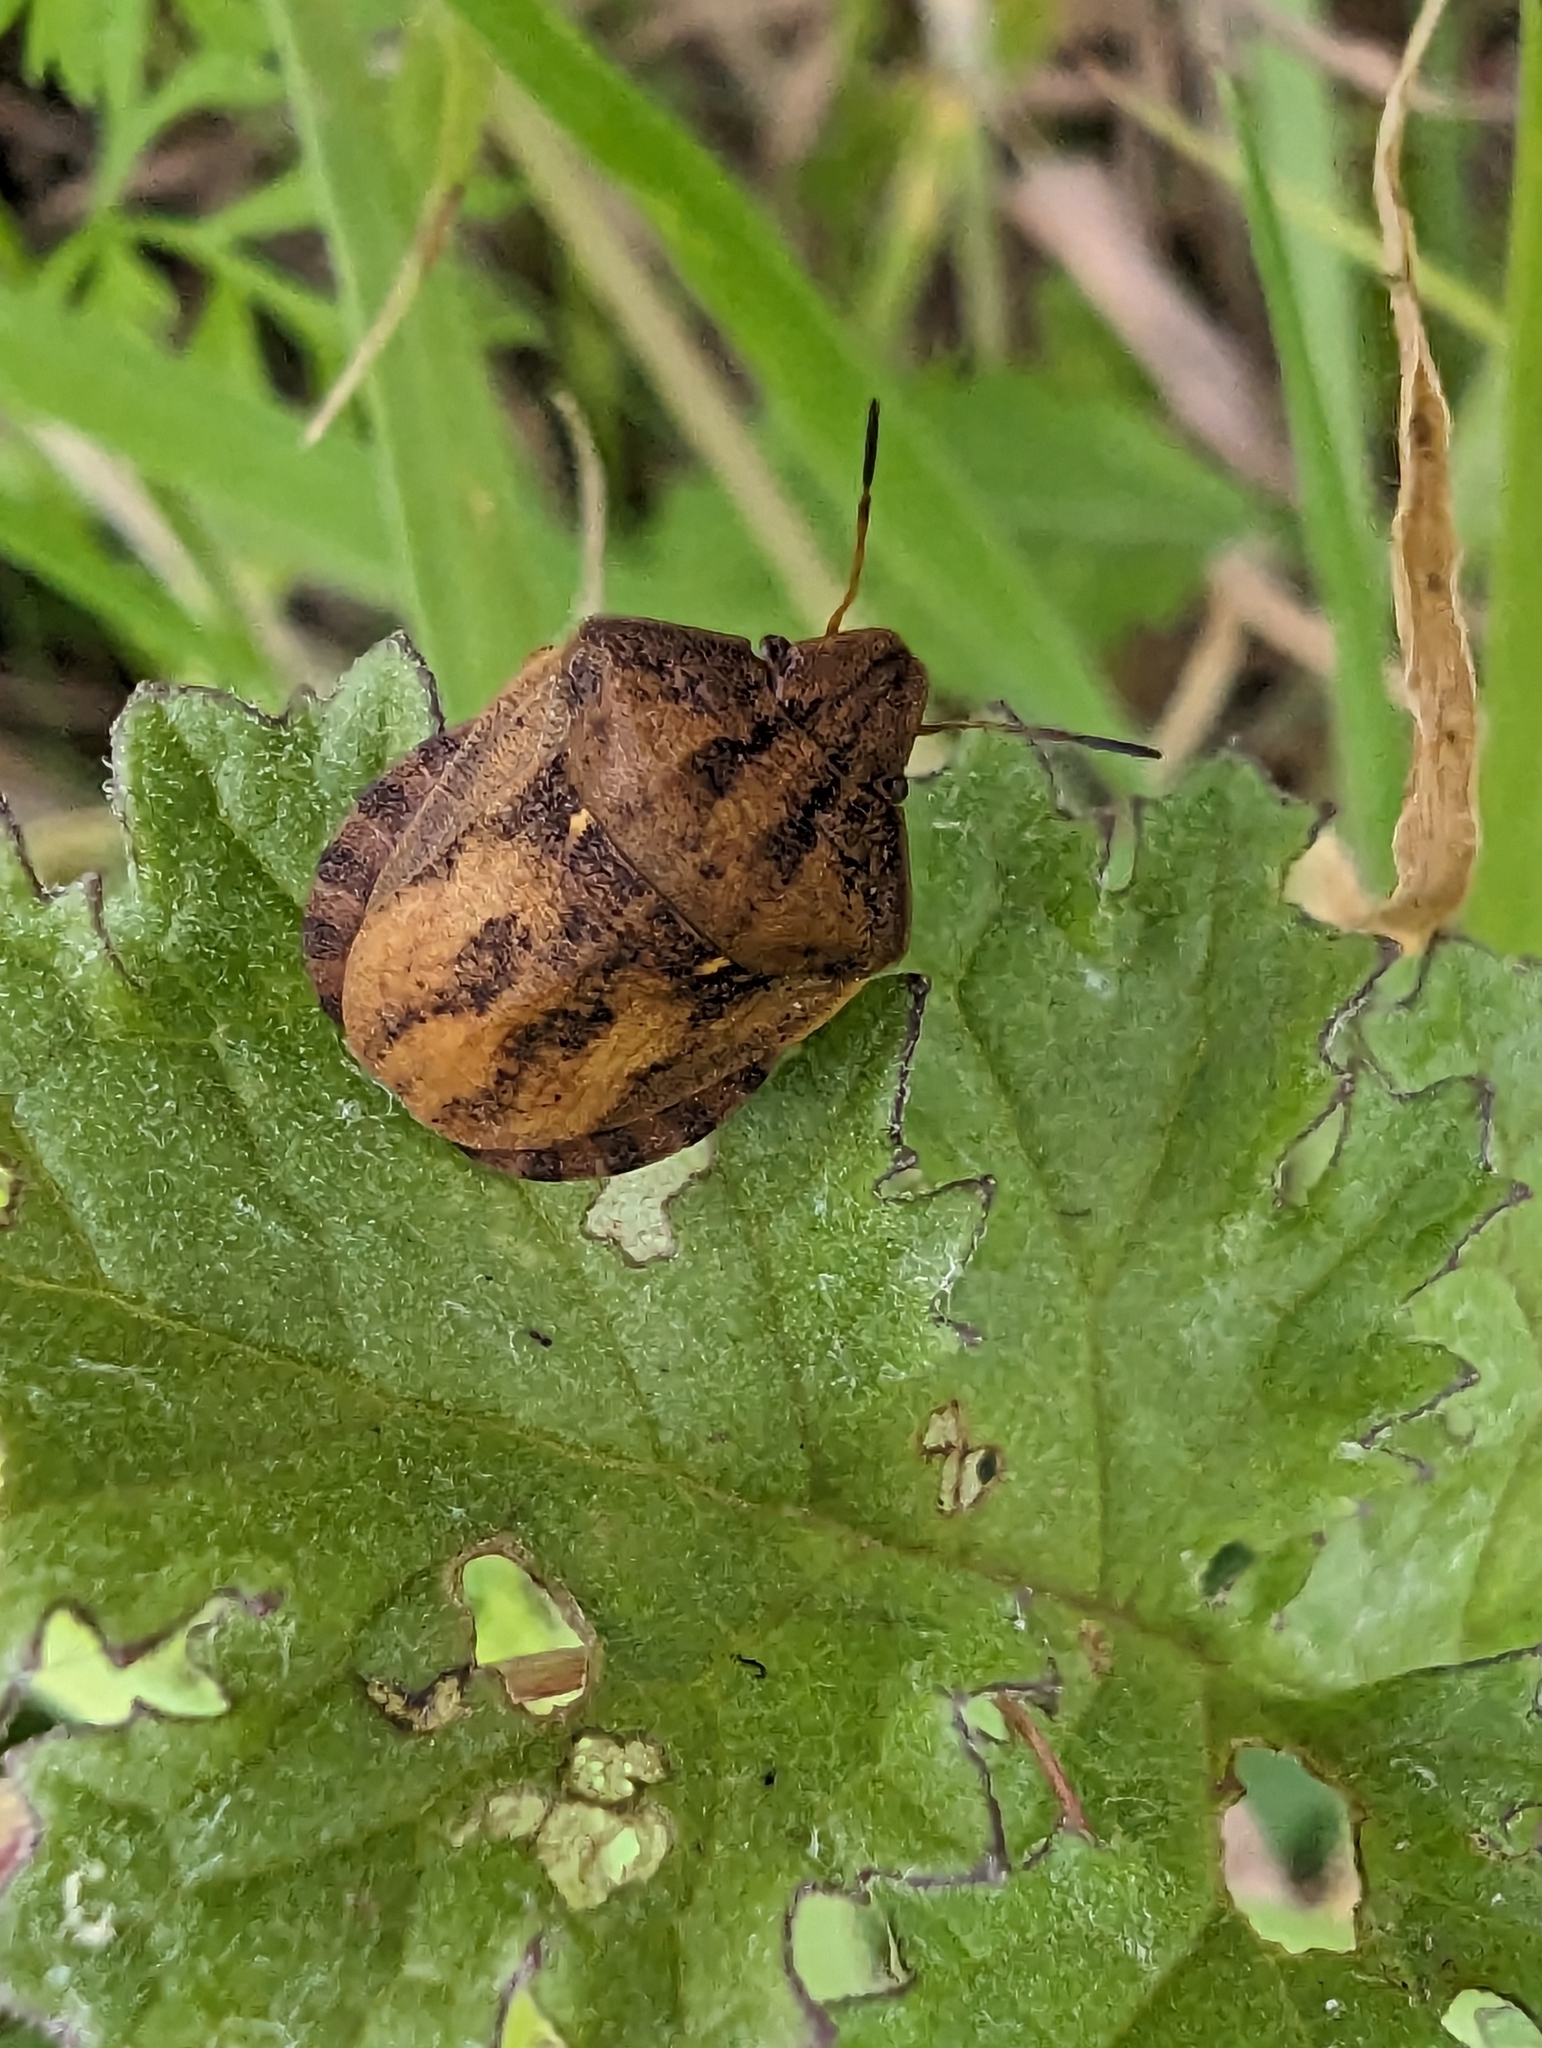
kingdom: Animalia
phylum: Arthropoda
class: Insecta
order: Hemiptera
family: Scutelleridae
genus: Eurygaster
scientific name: Eurygaster testudinaria
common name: Tortoise bug
